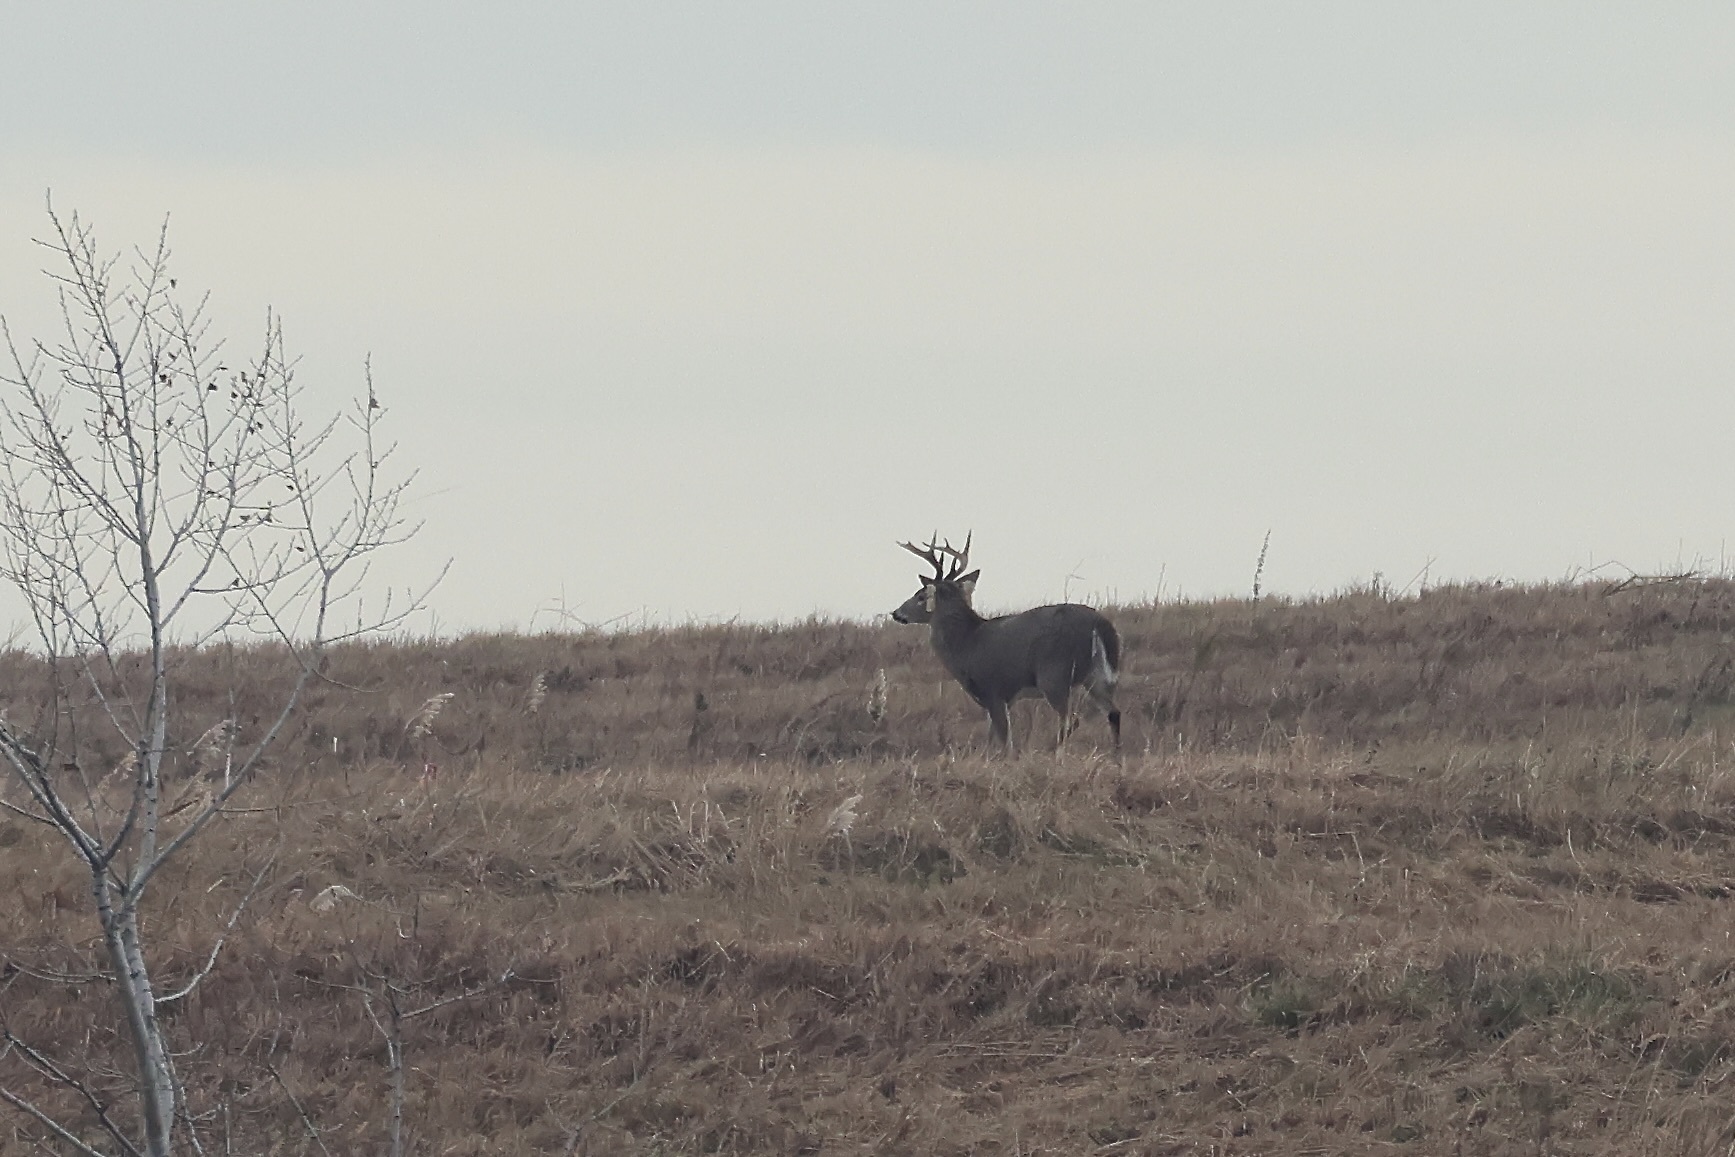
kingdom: Animalia
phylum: Chordata
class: Mammalia
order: Artiodactyla
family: Cervidae
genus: Odocoileus
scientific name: Odocoileus virginianus
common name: White-tailed deer
